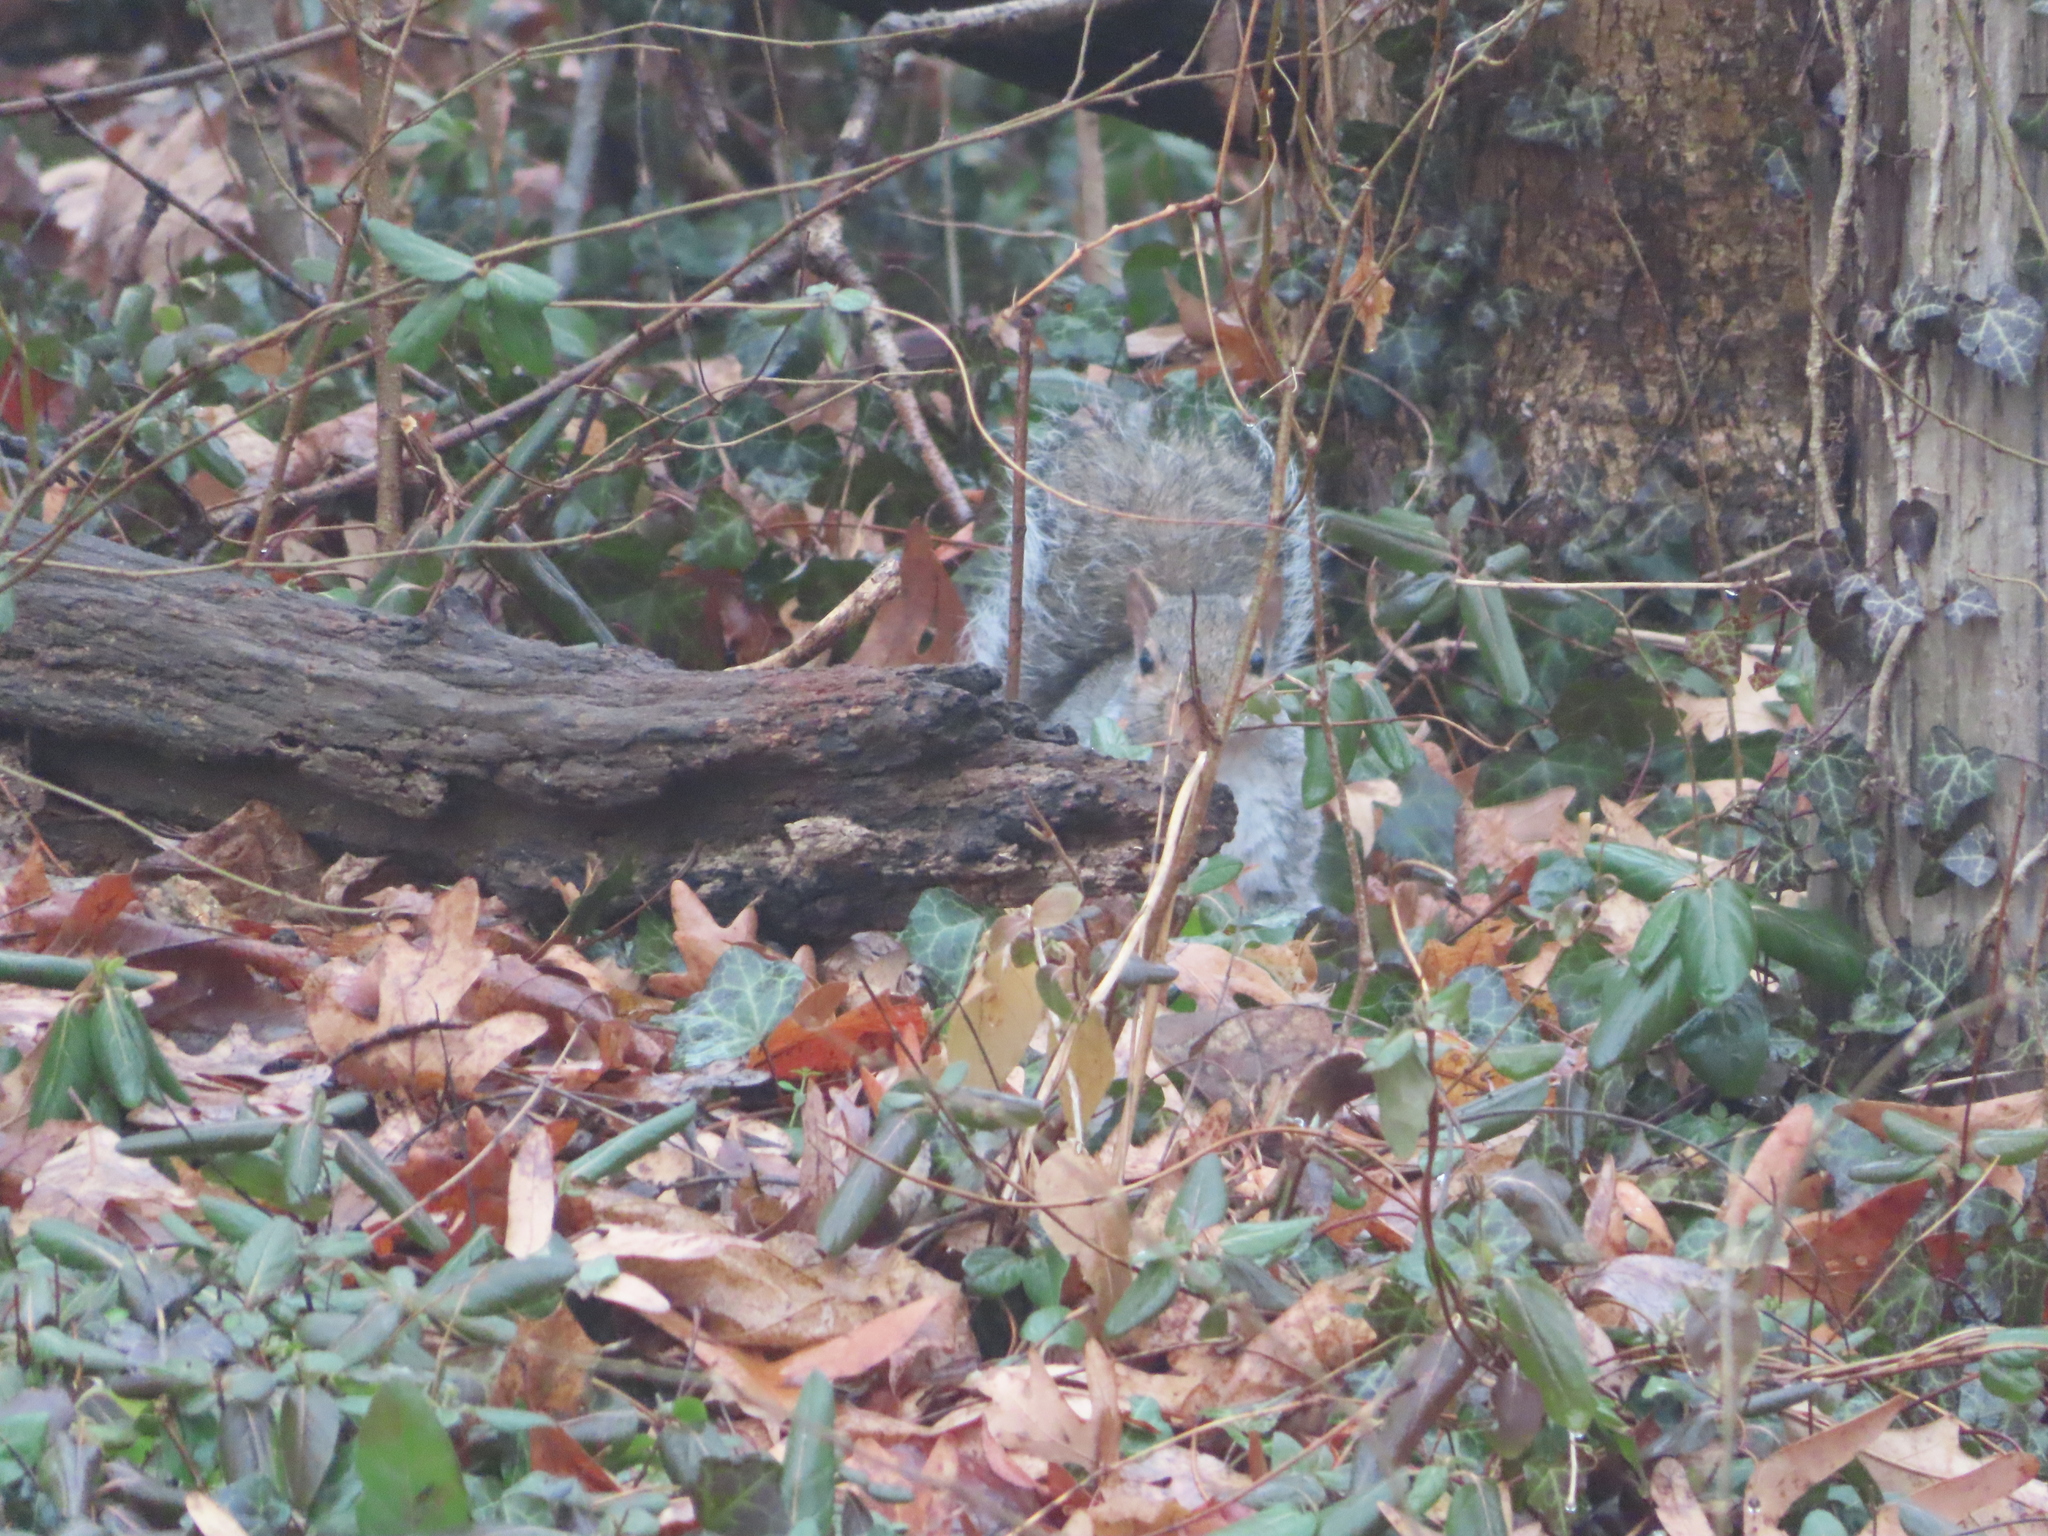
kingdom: Animalia
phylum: Chordata
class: Mammalia
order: Rodentia
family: Sciuridae
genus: Sciurus
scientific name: Sciurus carolinensis
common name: Eastern gray squirrel
